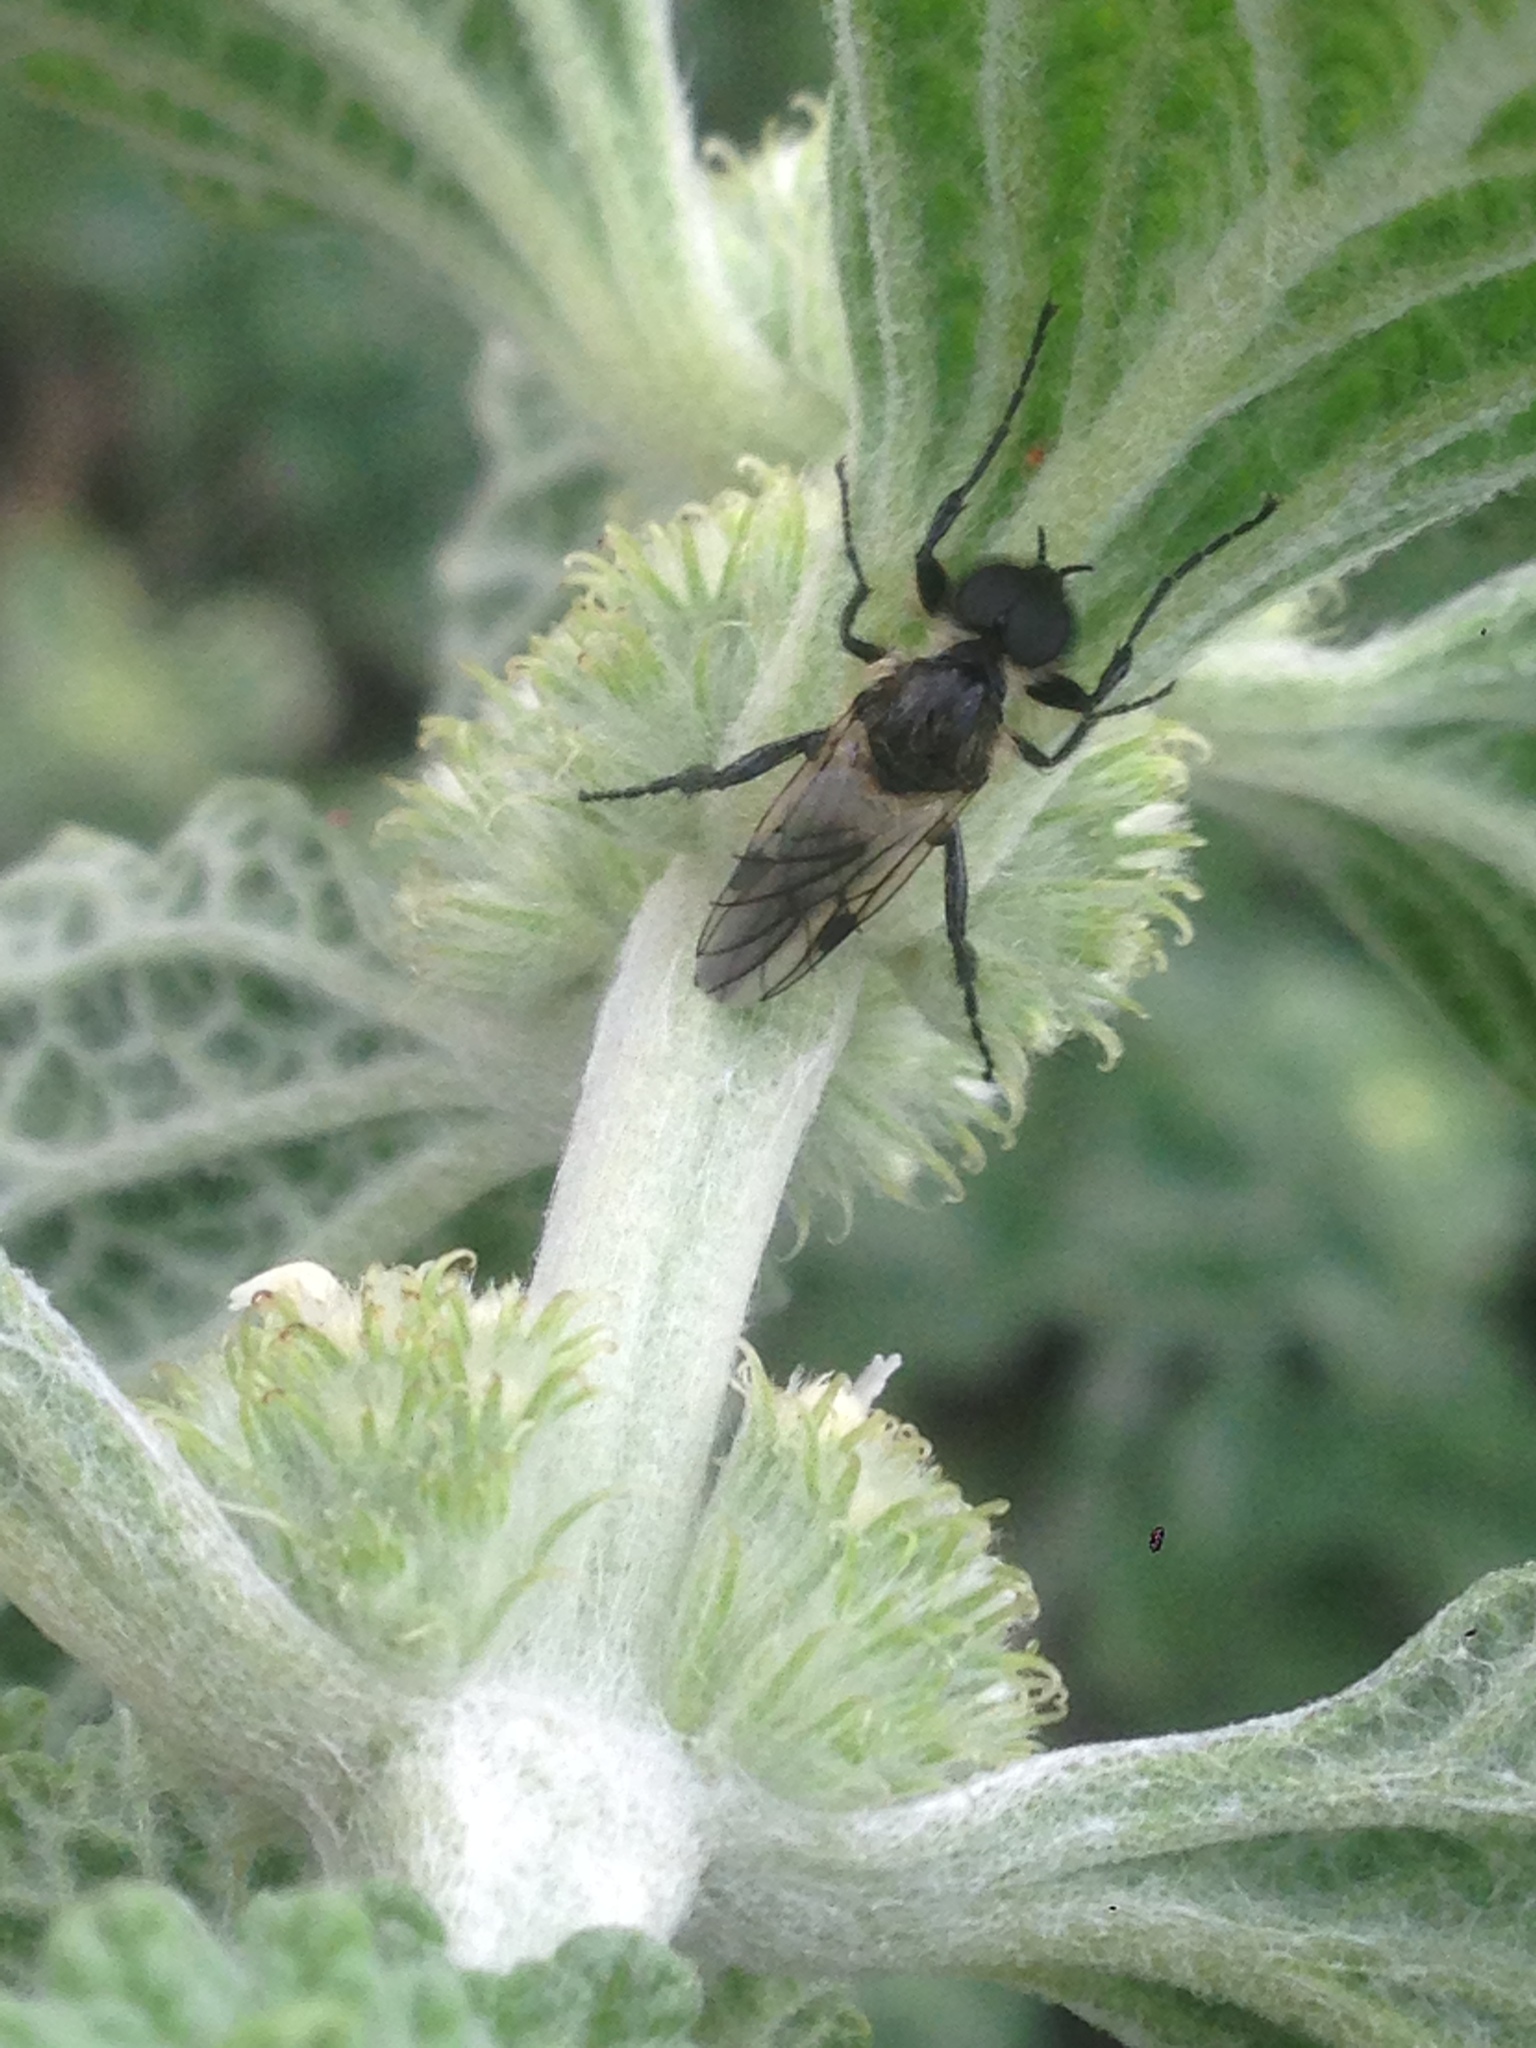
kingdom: Animalia
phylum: Arthropoda
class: Insecta
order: Diptera
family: Bibionidae
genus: Bibio
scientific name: Bibio albipennis
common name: White-winged march fly
